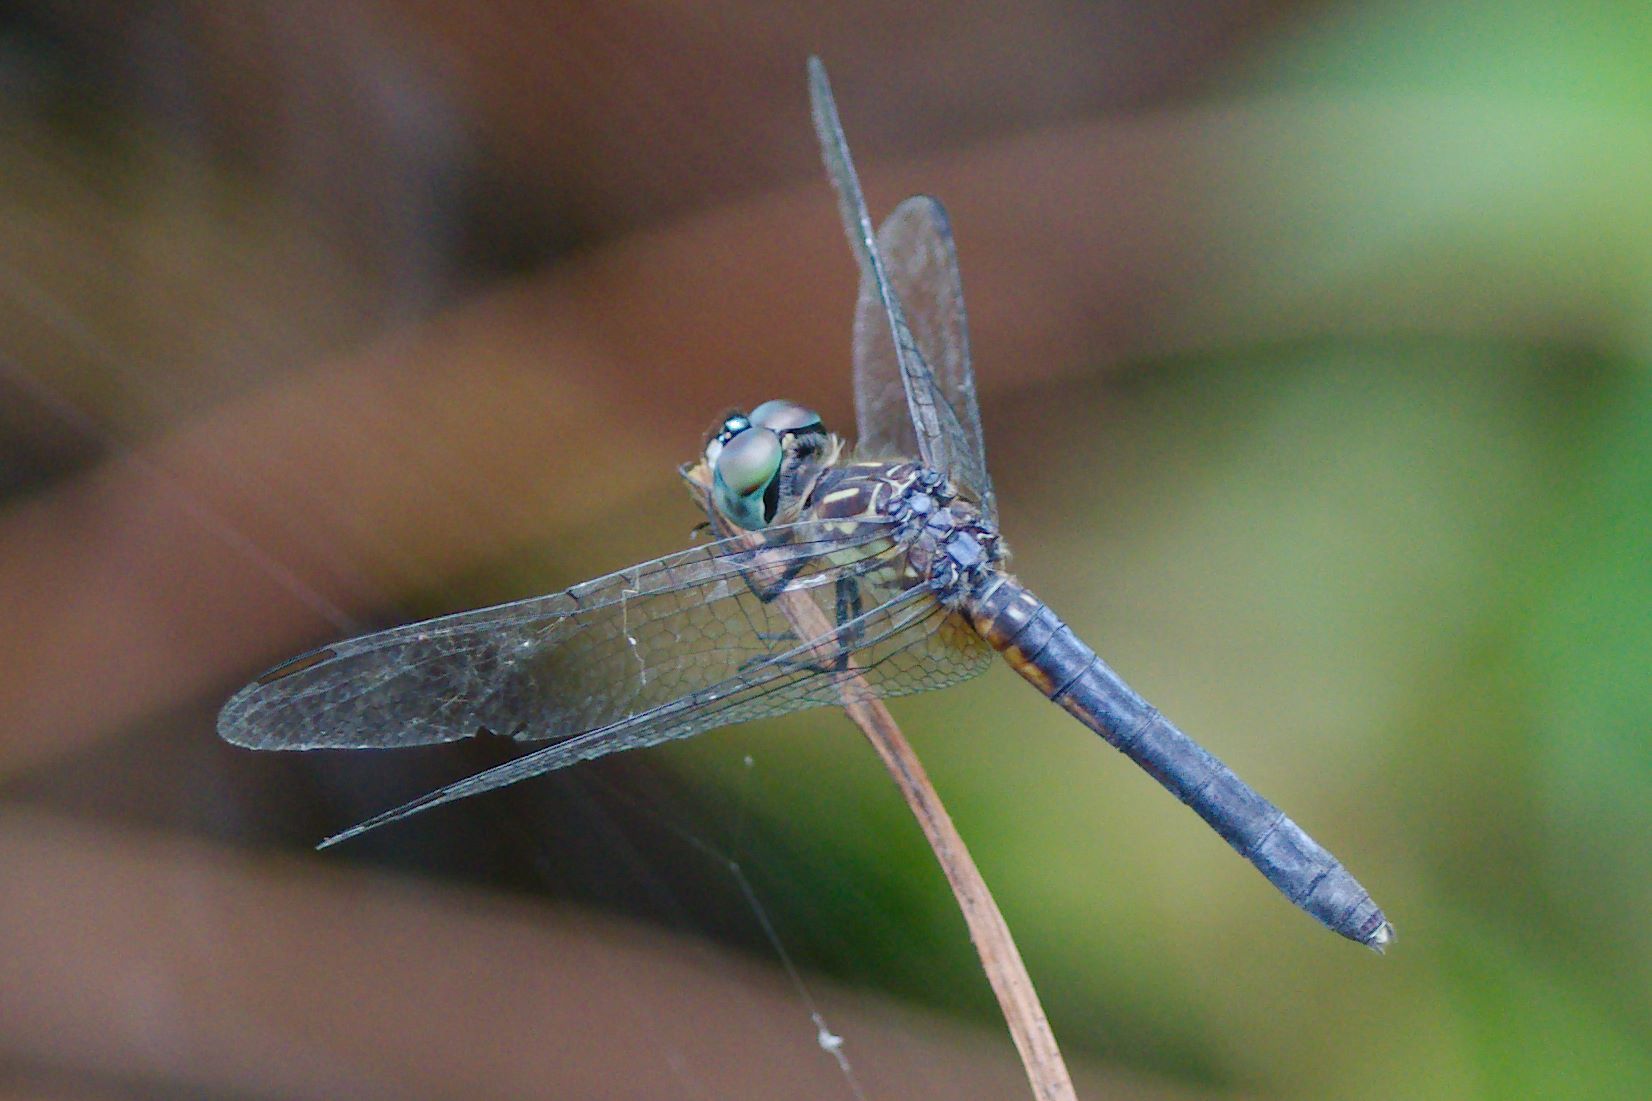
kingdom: Animalia
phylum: Arthropoda
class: Insecta
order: Odonata
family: Libellulidae
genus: Pachydiplax
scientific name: Pachydiplax longipennis
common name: Blue dasher
